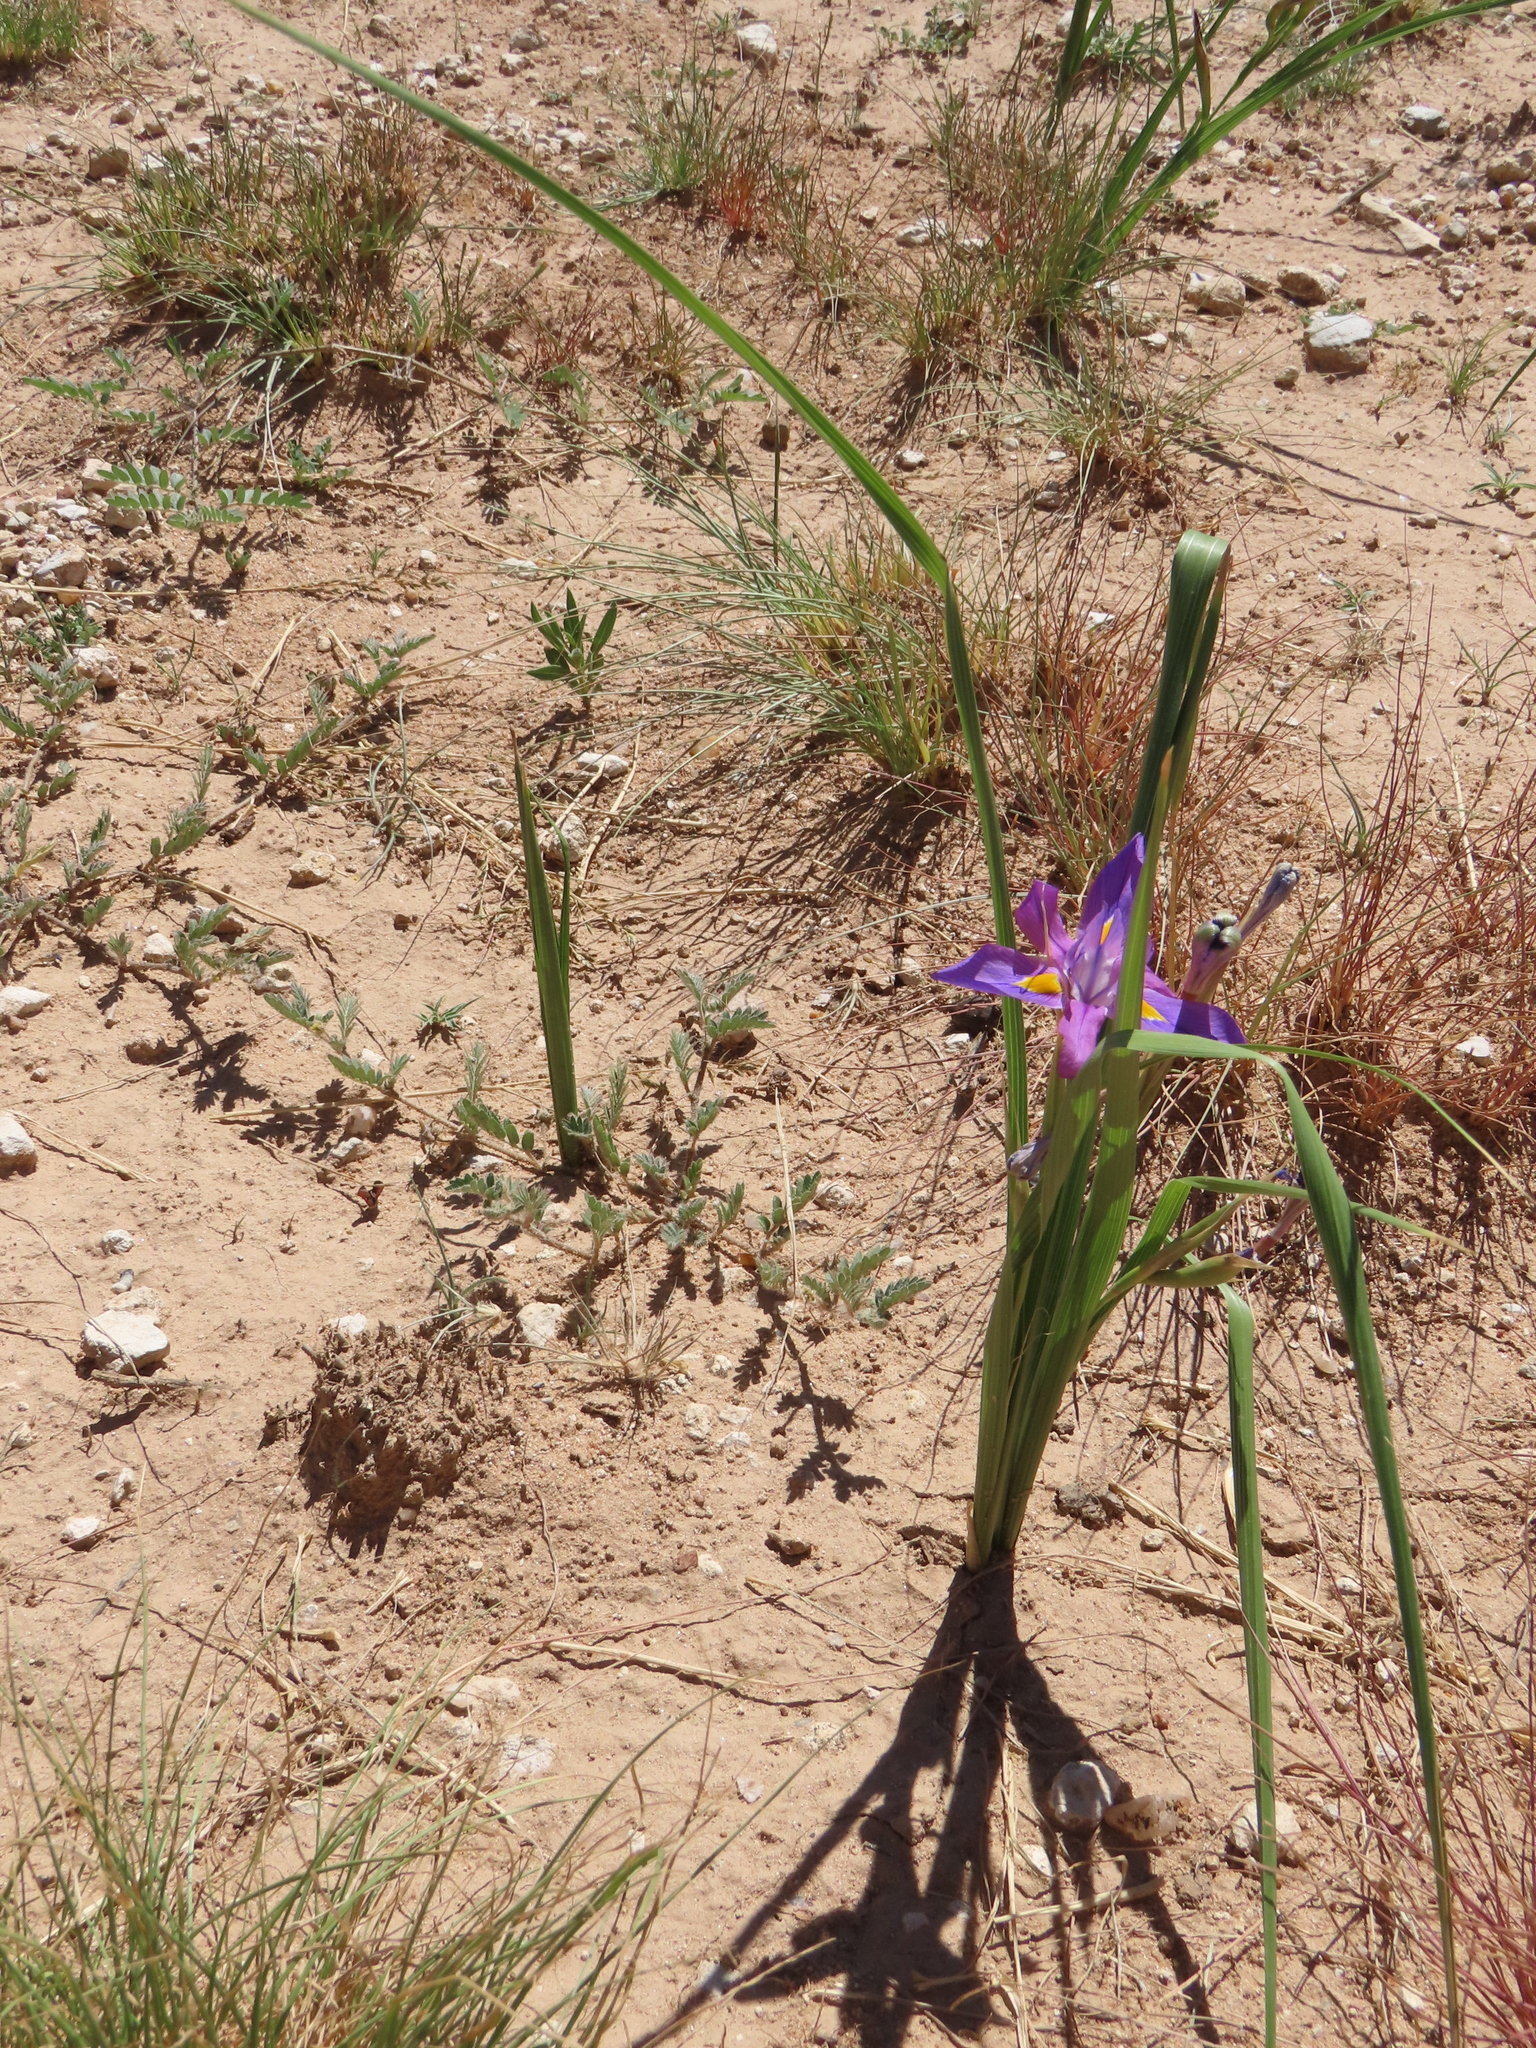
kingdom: Plantae
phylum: Tracheophyta
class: Liliopsida
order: Asparagales
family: Iridaceae
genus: Moraea
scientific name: Moraea polystachya
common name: Blue-tulip
